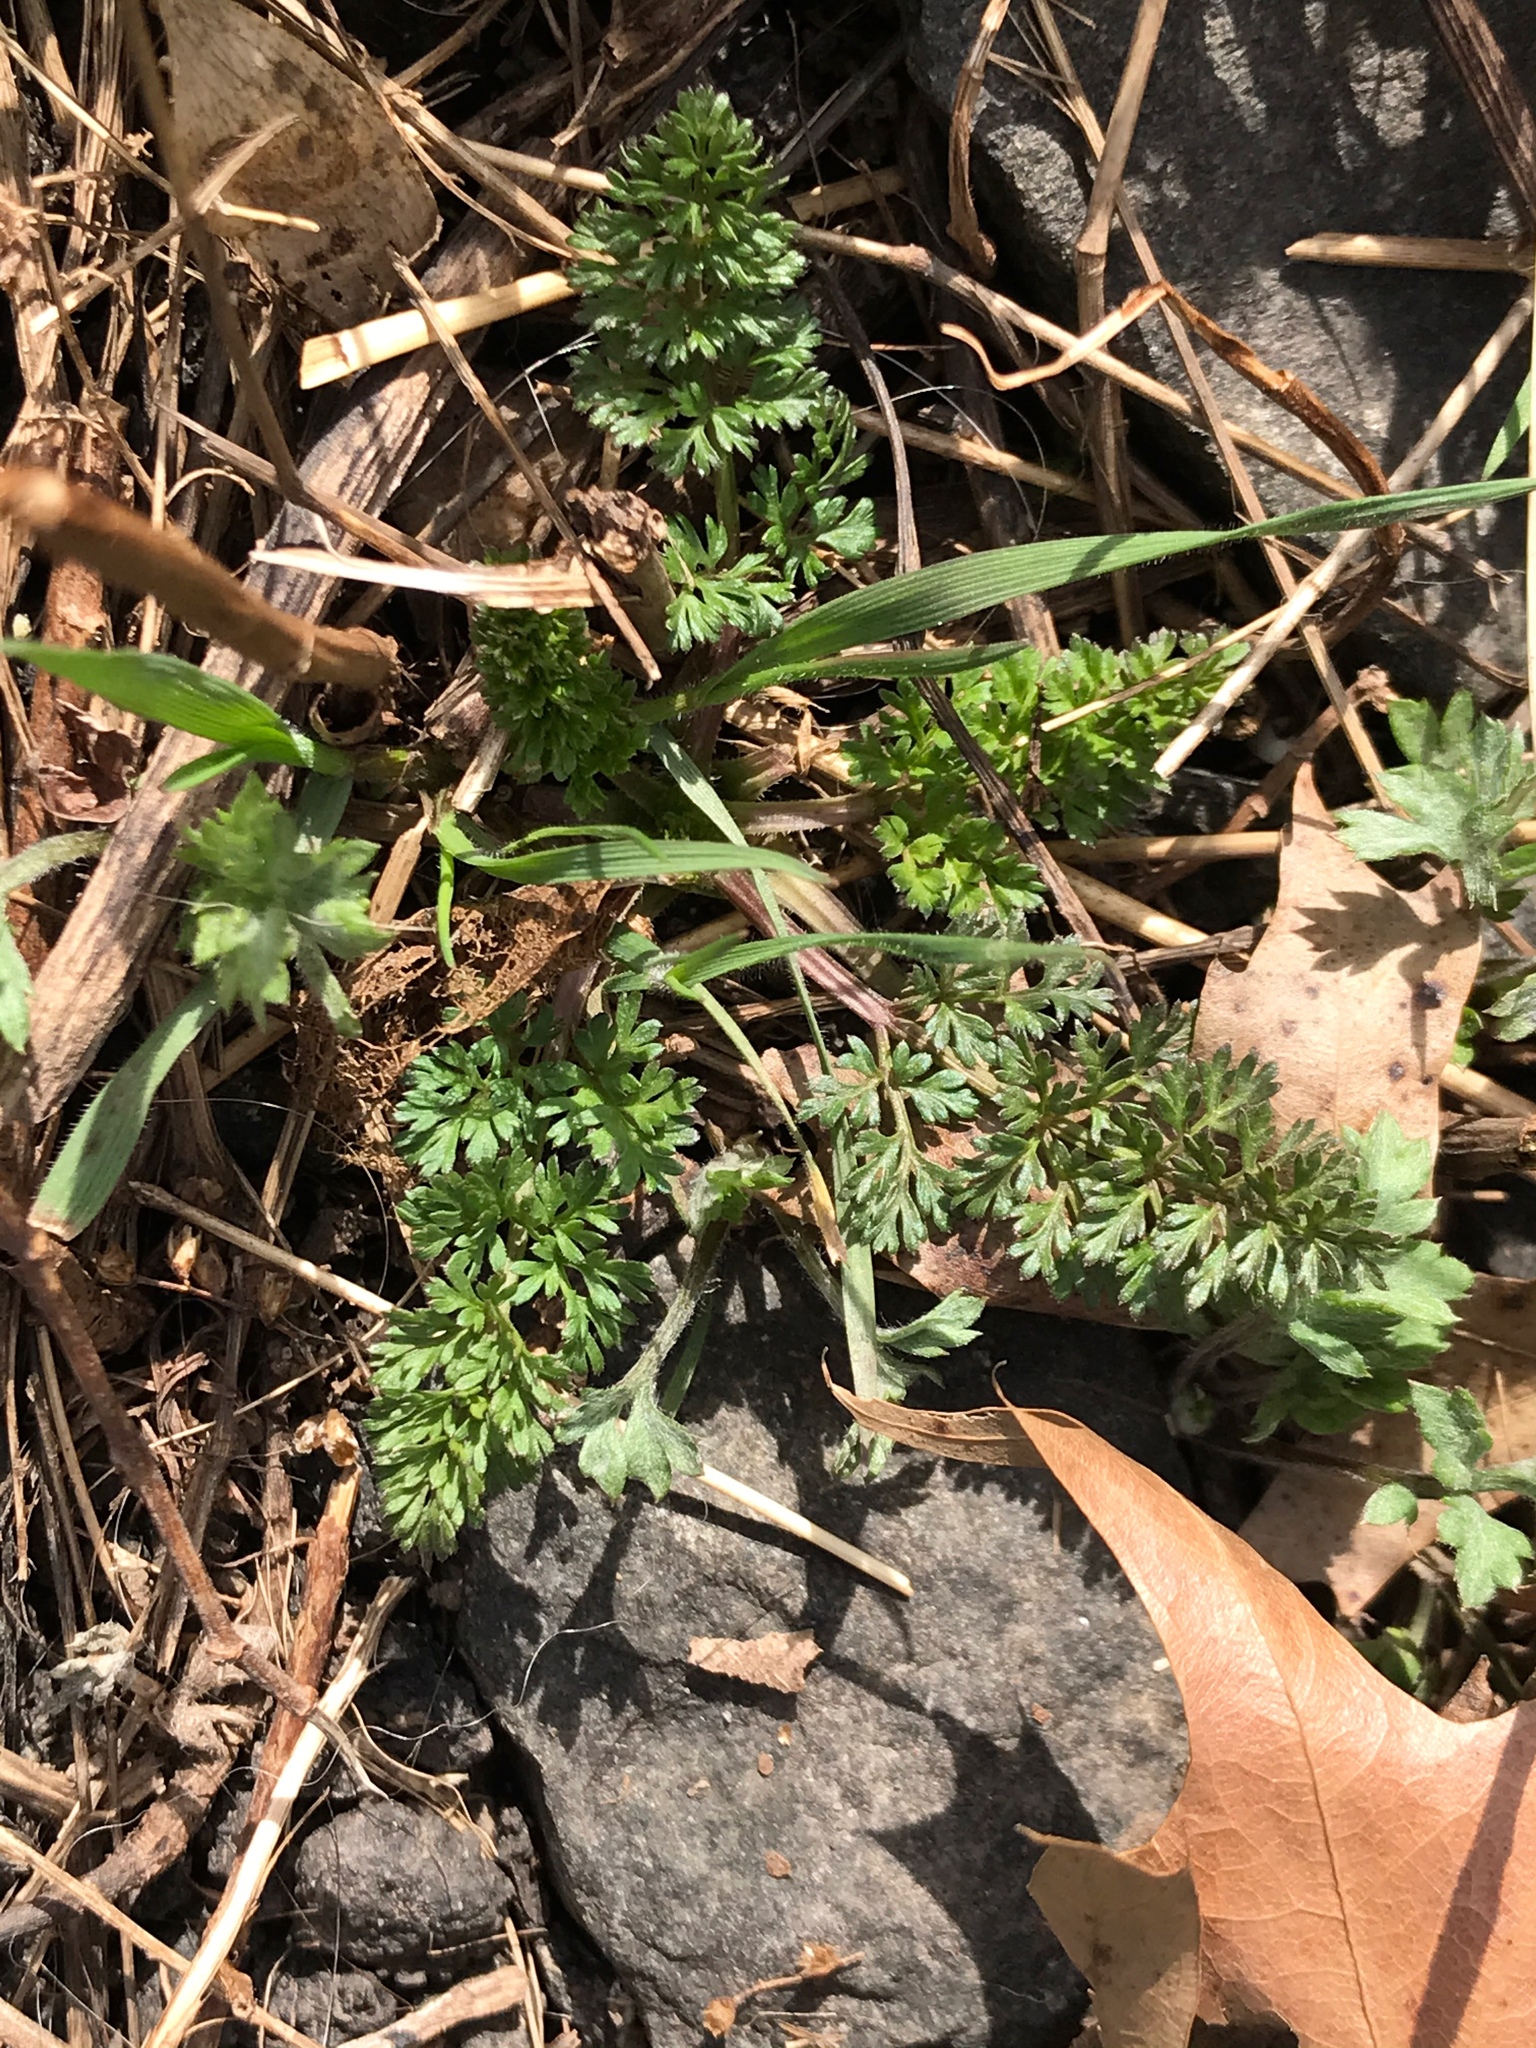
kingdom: Plantae
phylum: Tracheophyta
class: Magnoliopsida
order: Apiales
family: Apiaceae
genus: Daucus
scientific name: Daucus carota
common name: Wild carrot
